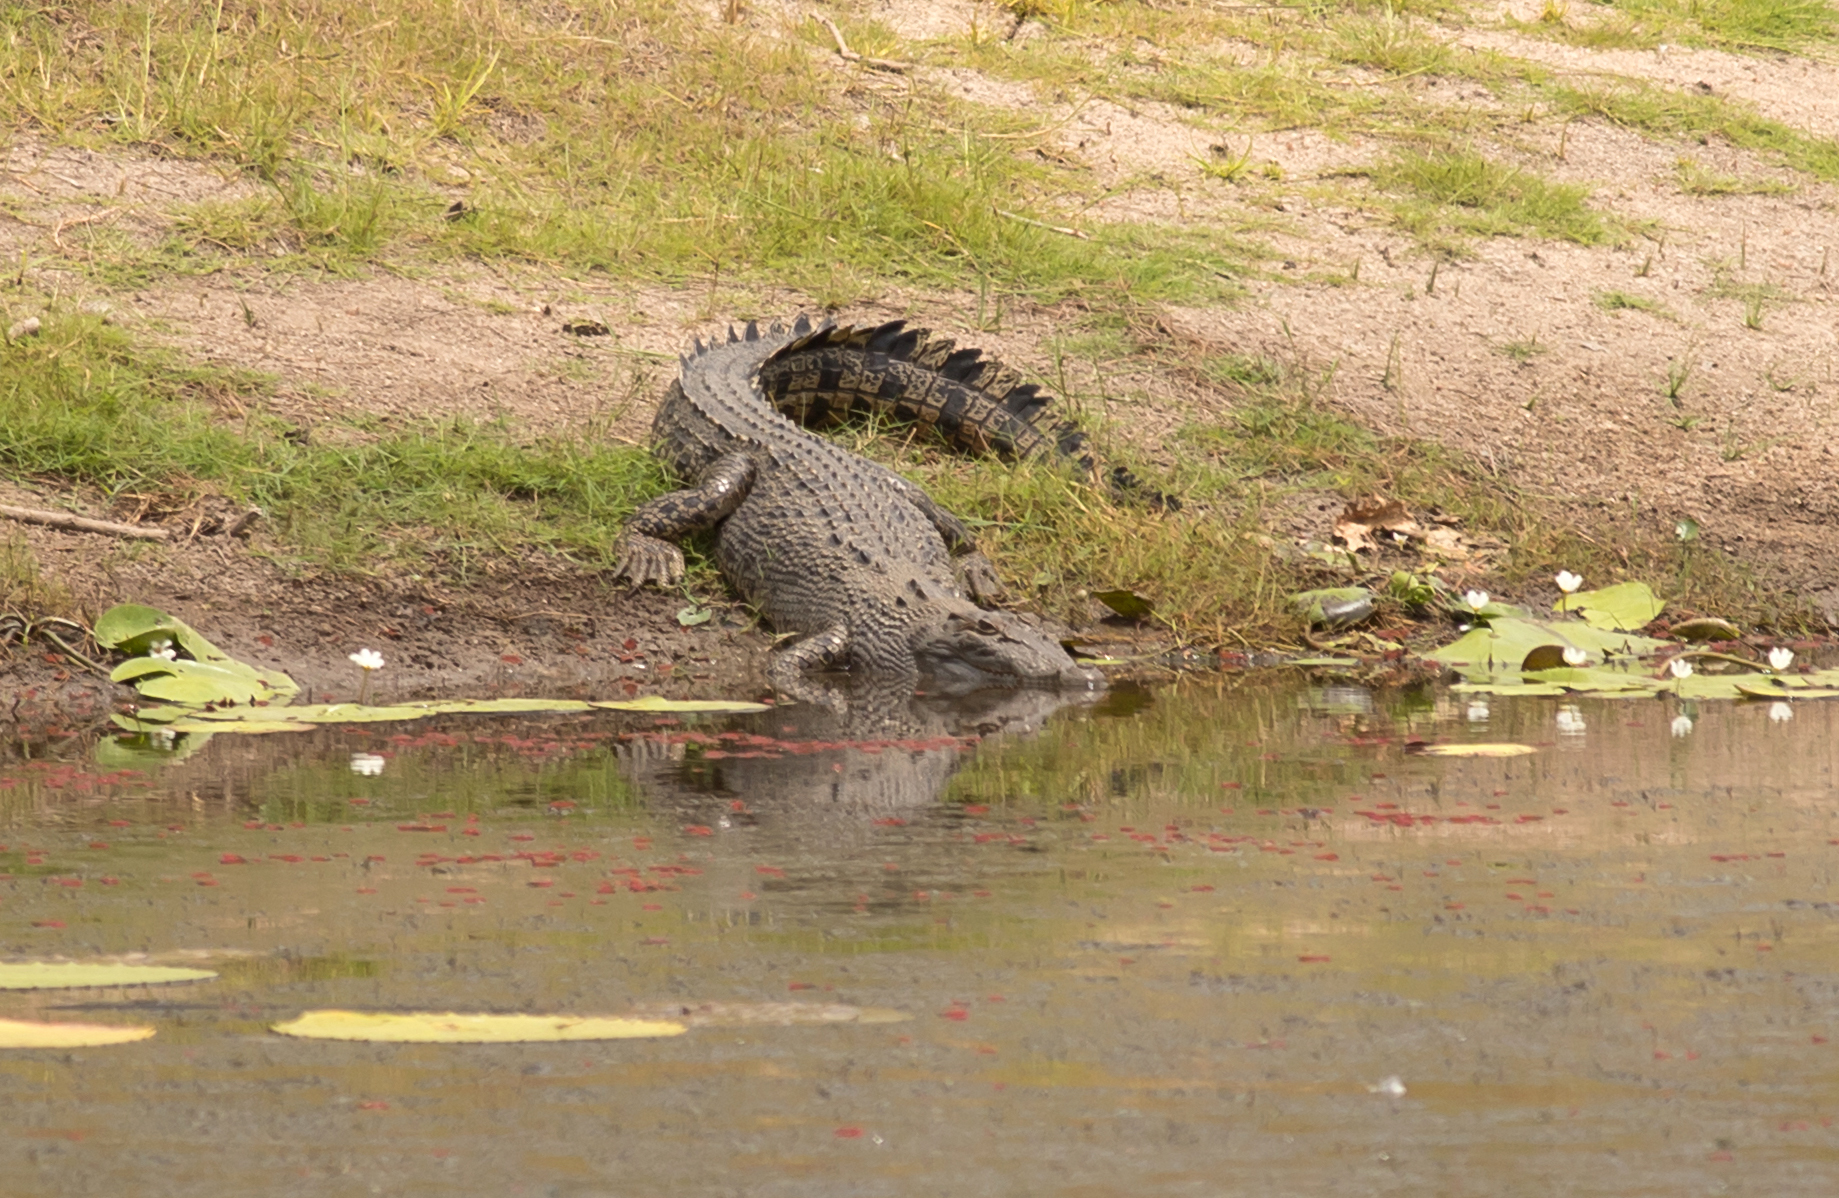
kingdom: Animalia
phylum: Chordata
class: Crocodylia
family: Crocodylidae
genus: Crocodylus
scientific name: Crocodylus porosus
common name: Saltwater crocodile
